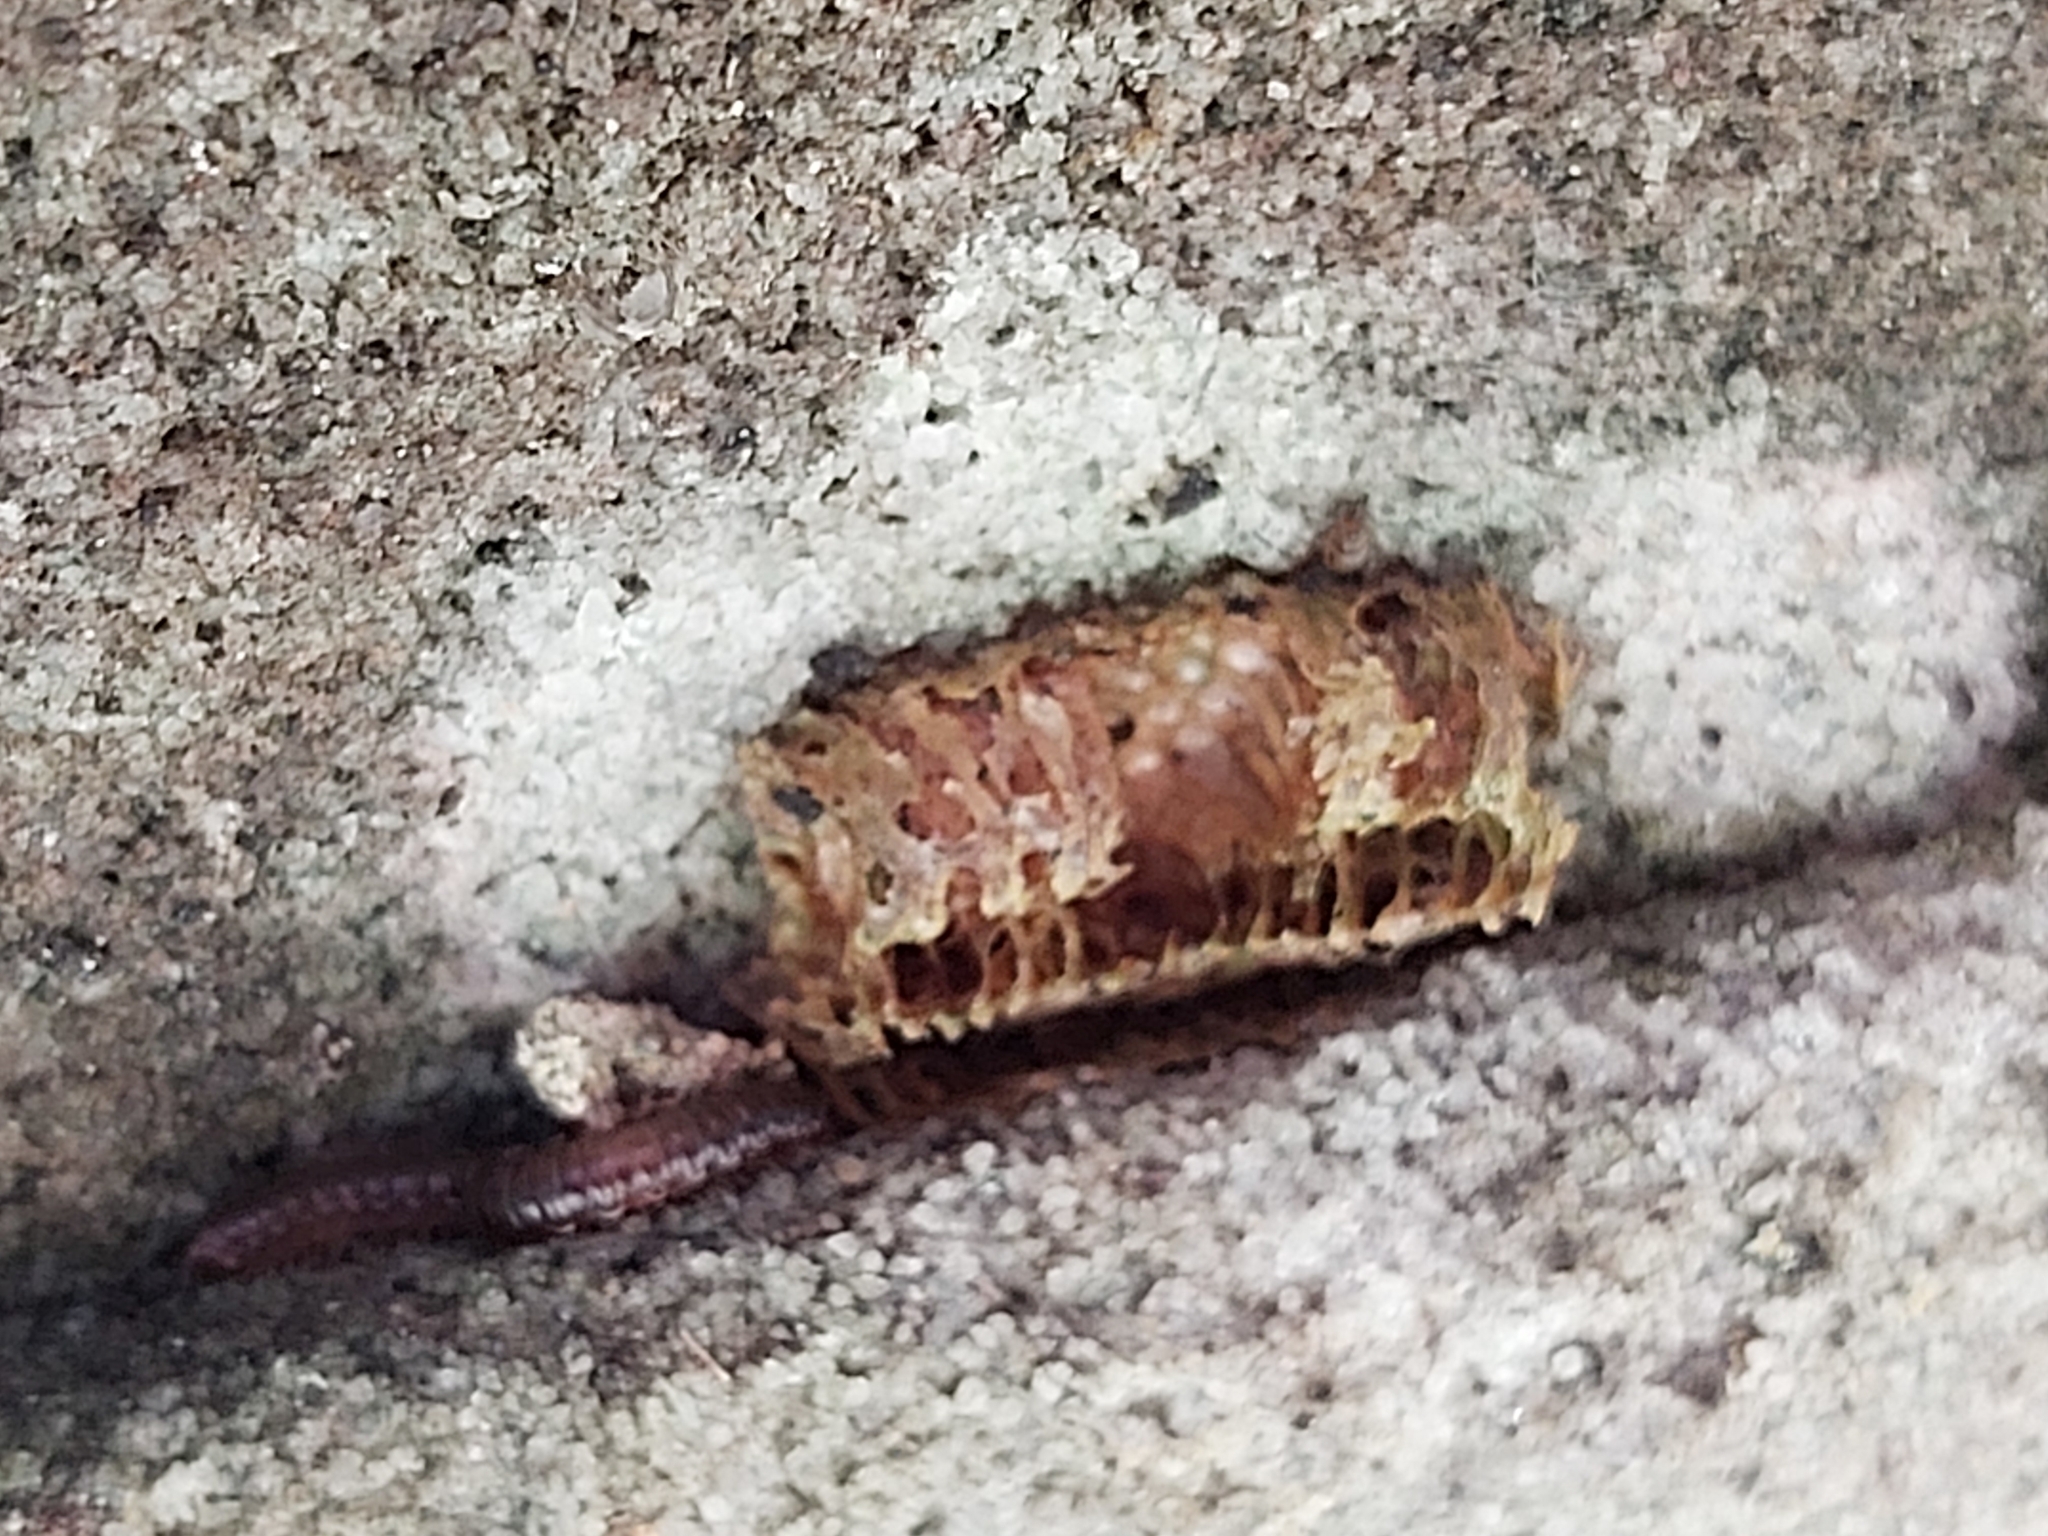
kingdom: Animalia
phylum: Arthropoda
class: Insecta
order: Mantodea
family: Mantidae
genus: Orthodera
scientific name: Orthodera ministralis
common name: Mantis
